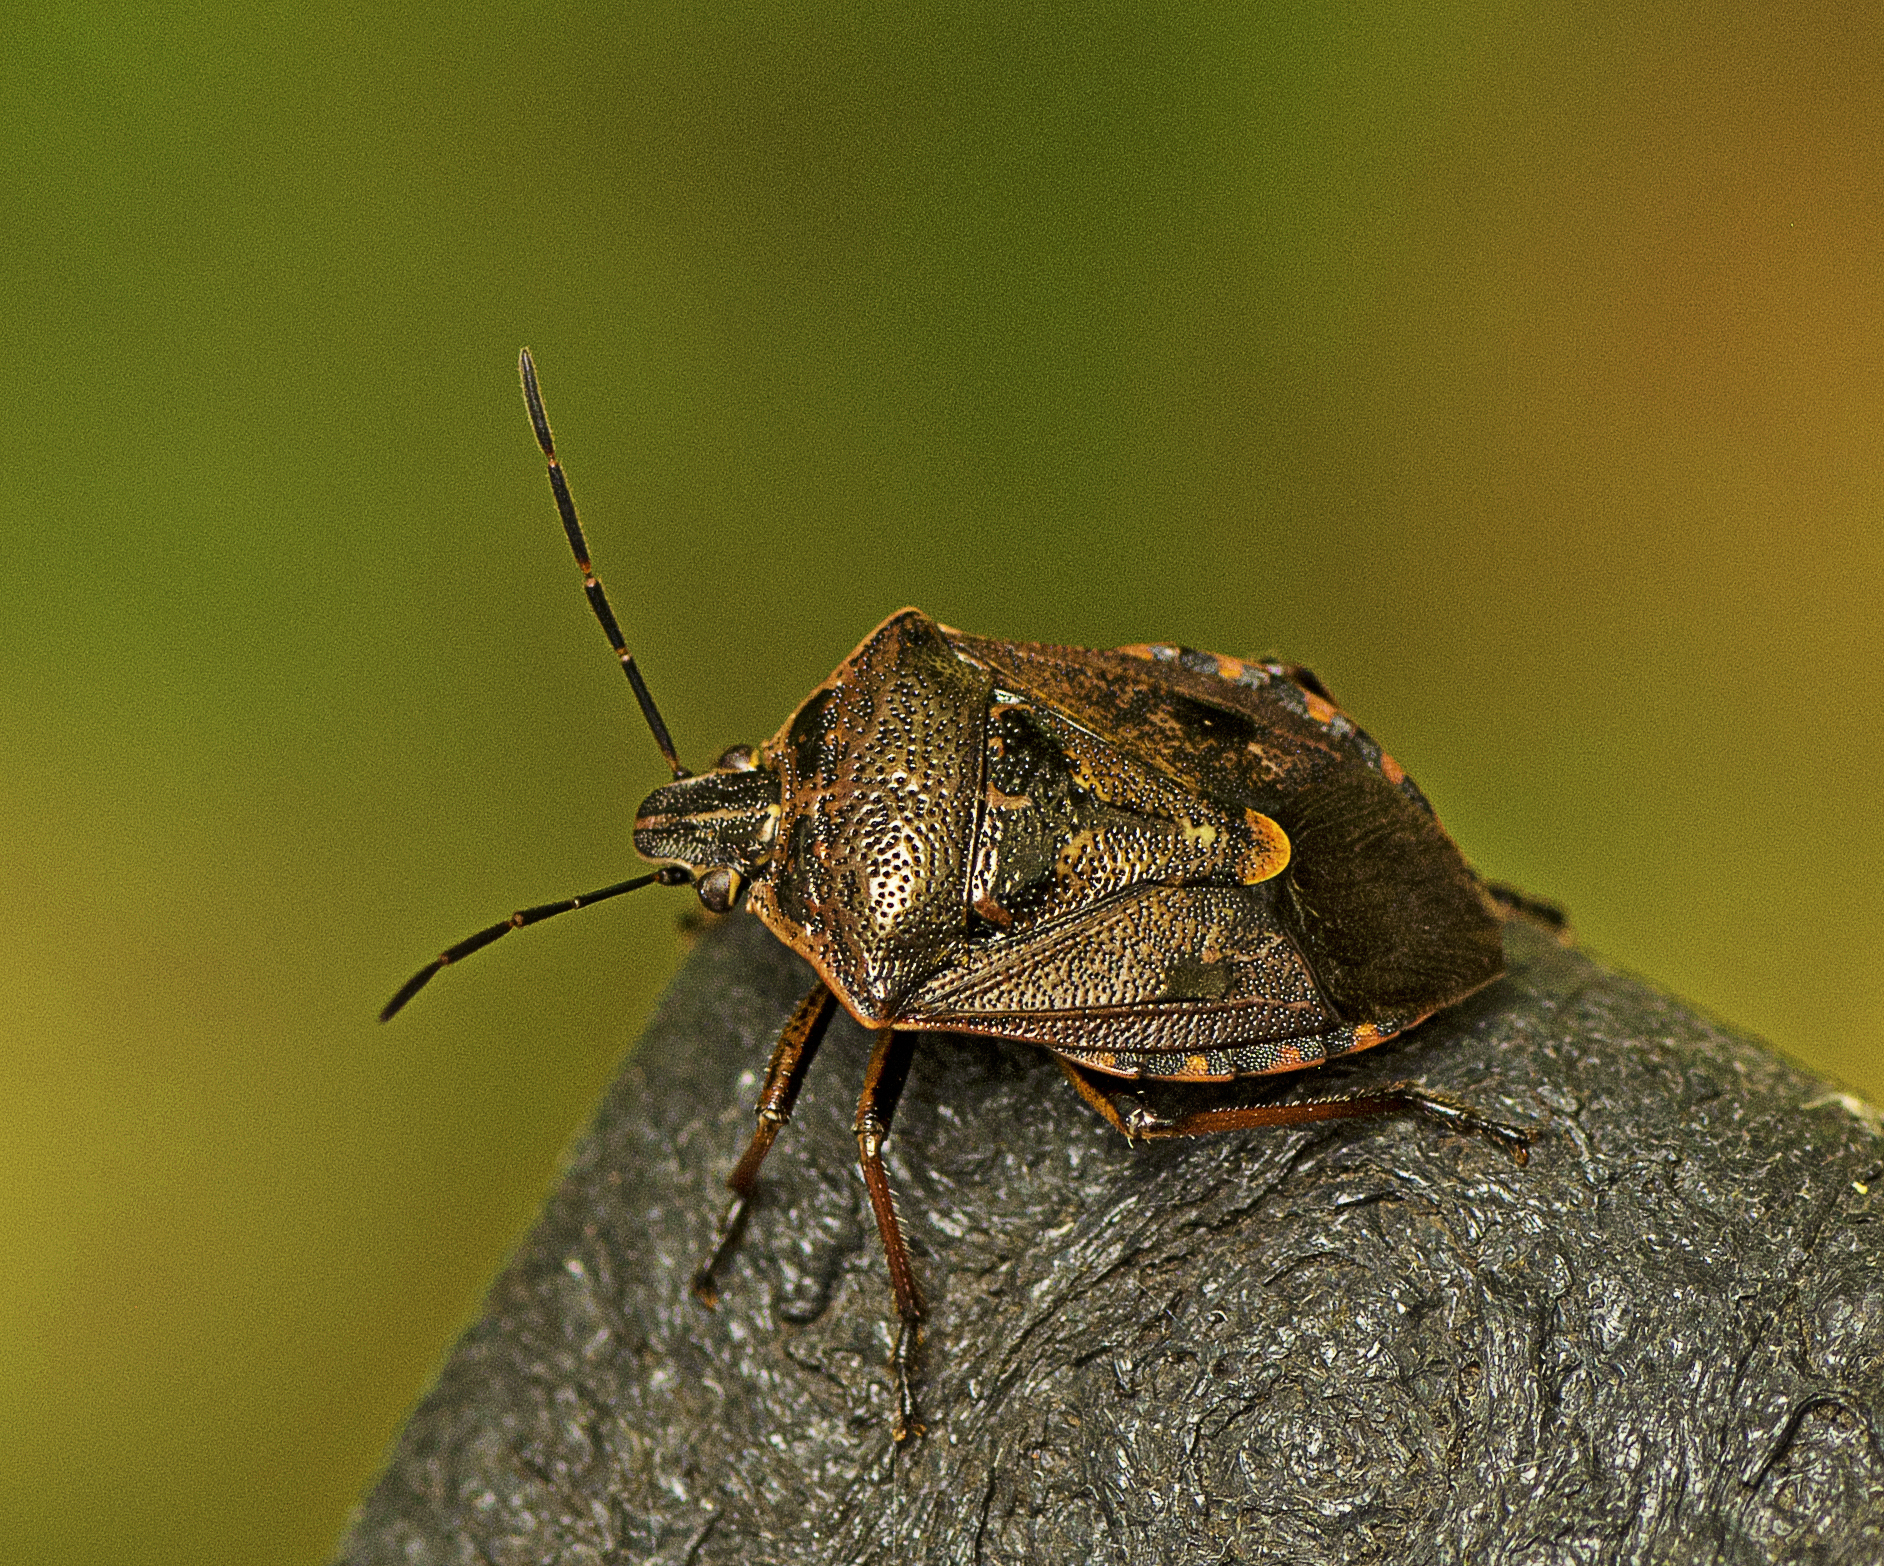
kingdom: Animalia
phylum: Arthropoda
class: Insecta
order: Hemiptera
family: Pentatomidae
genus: Cermatulus
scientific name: Cermatulus nasalis
